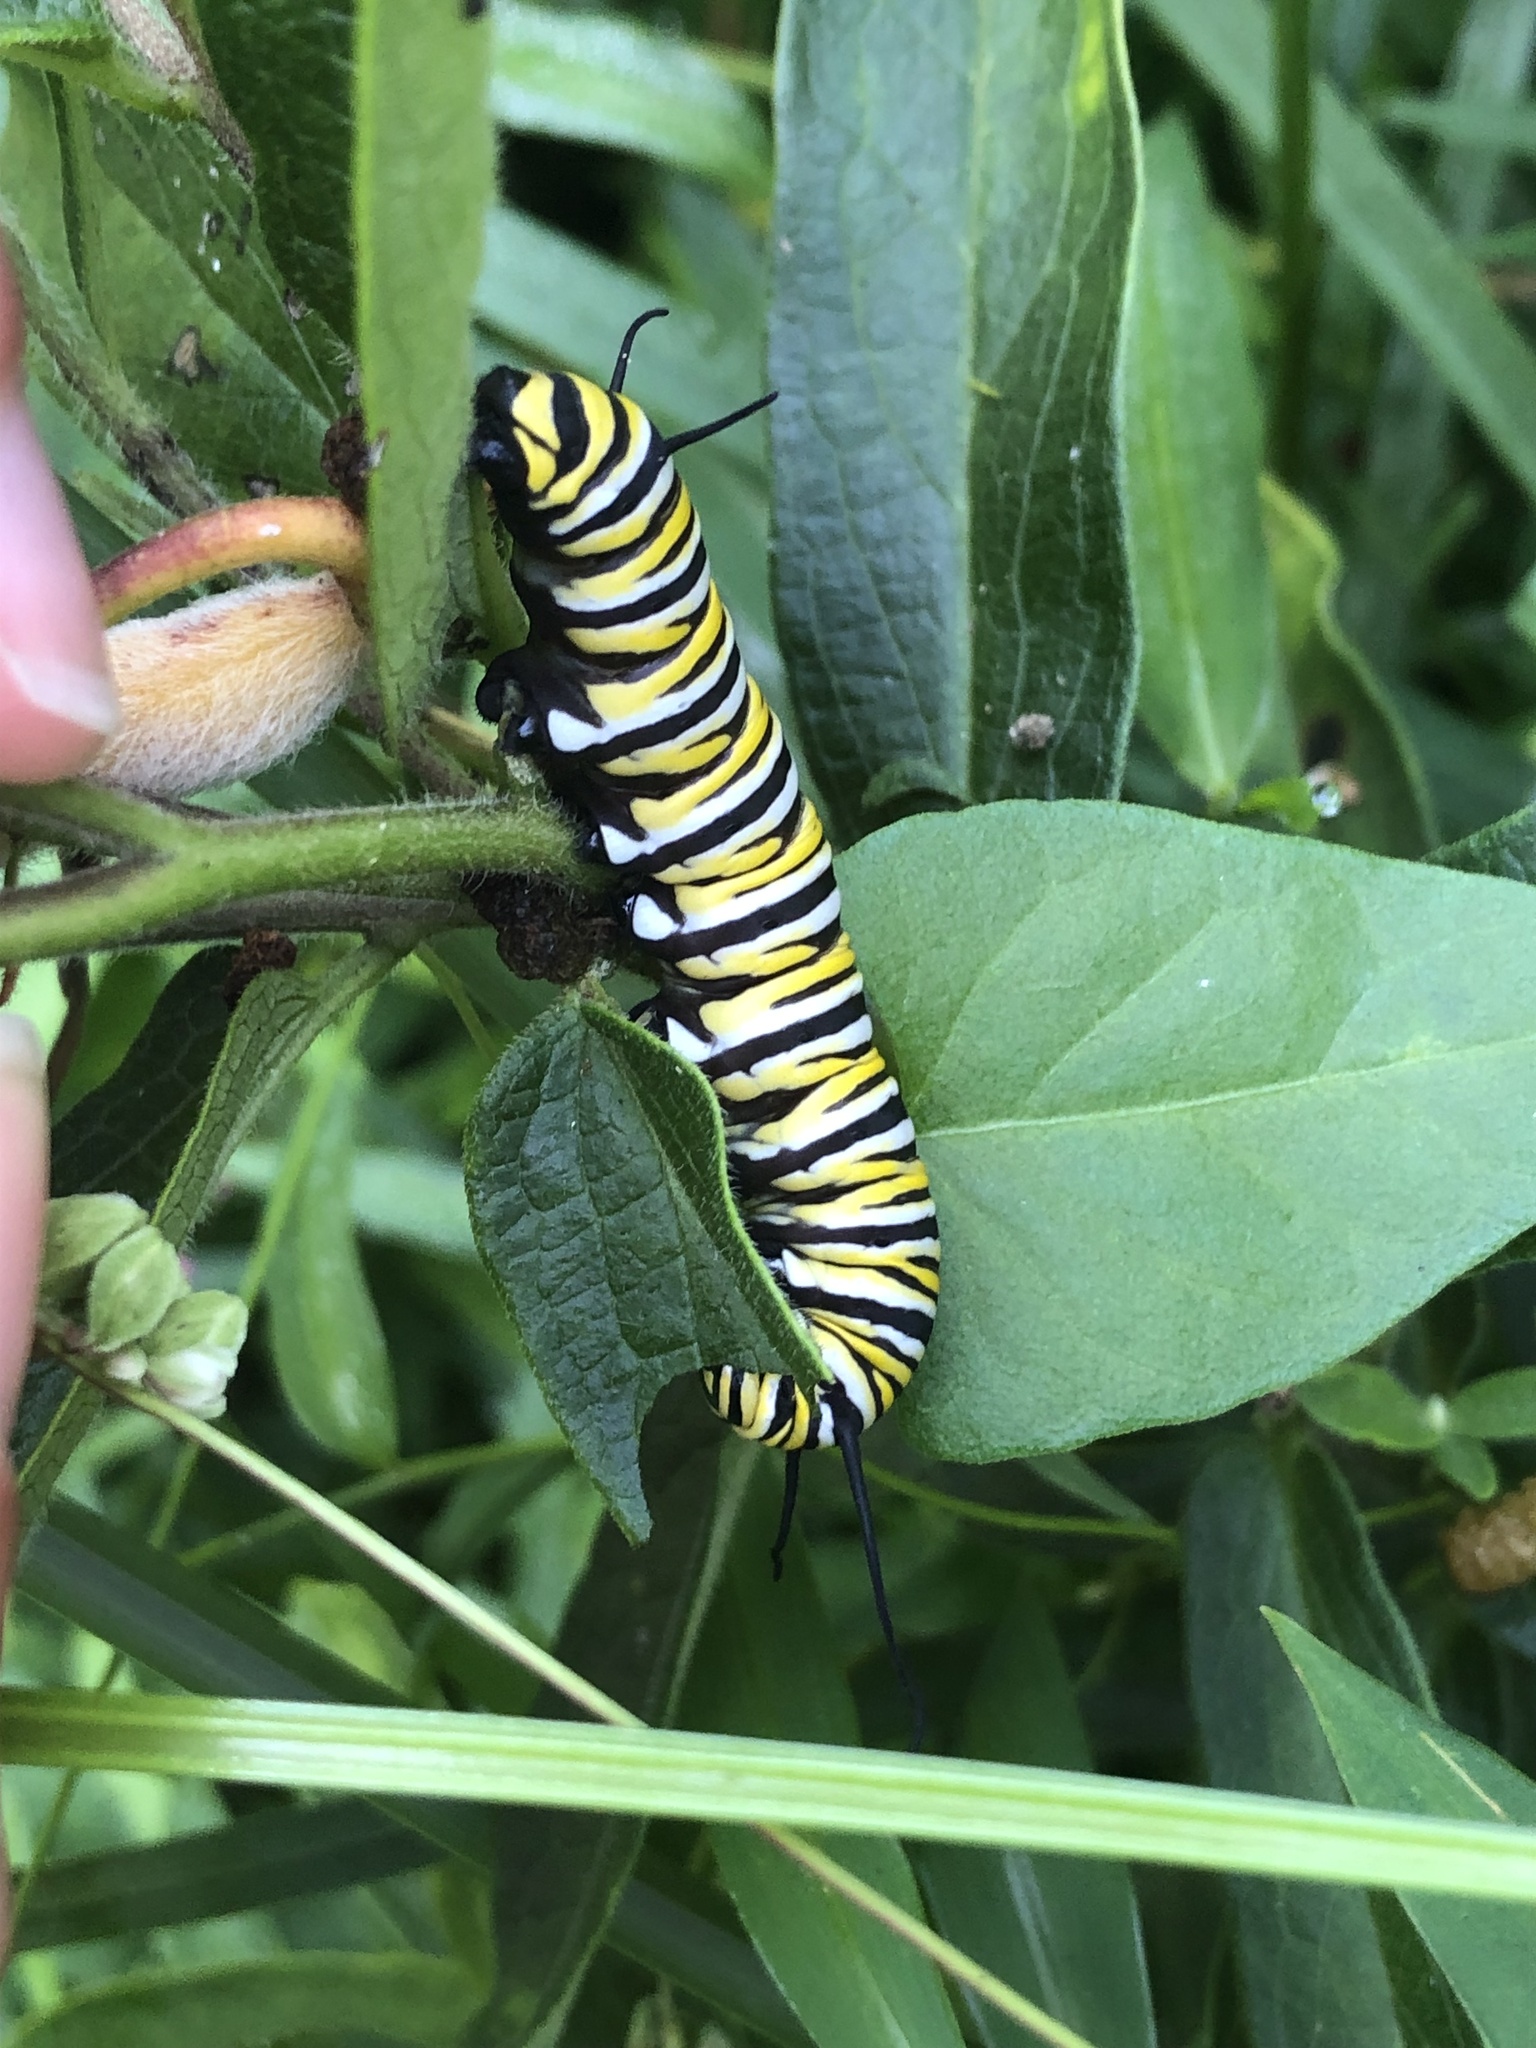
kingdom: Animalia
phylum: Arthropoda
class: Insecta
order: Lepidoptera
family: Nymphalidae
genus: Danaus
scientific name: Danaus plexippus
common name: Monarch
